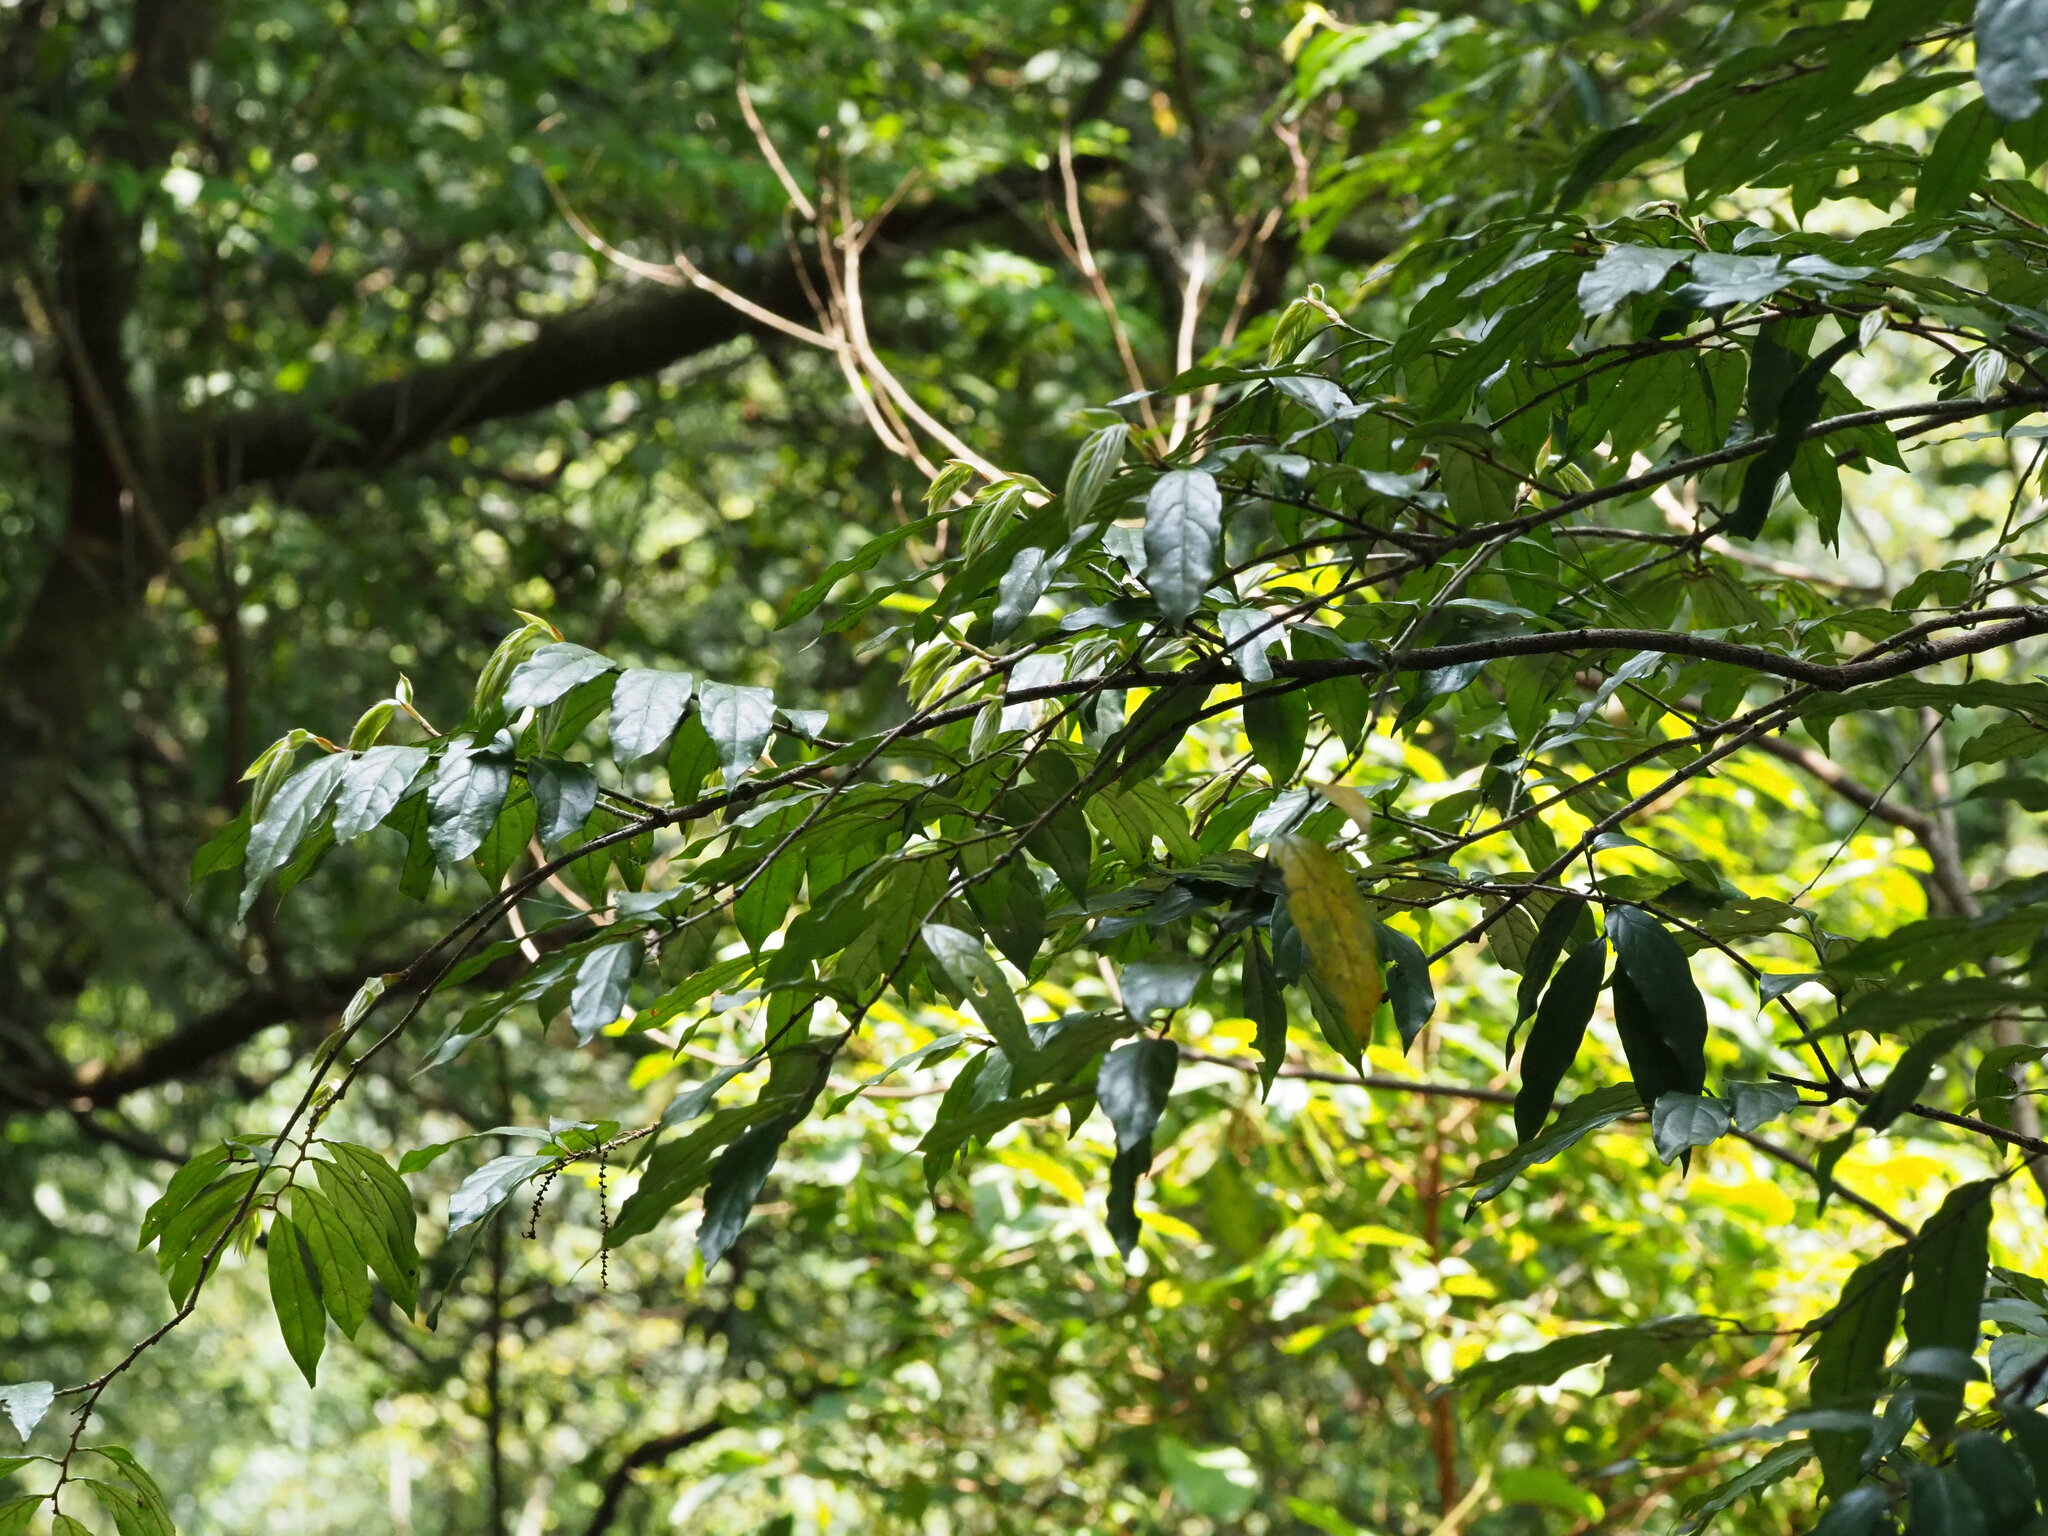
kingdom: Plantae
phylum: Tracheophyta
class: Magnoliopsida
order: Ericales
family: Ebenaceae
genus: Diospyros
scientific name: Diospyros eriantha
